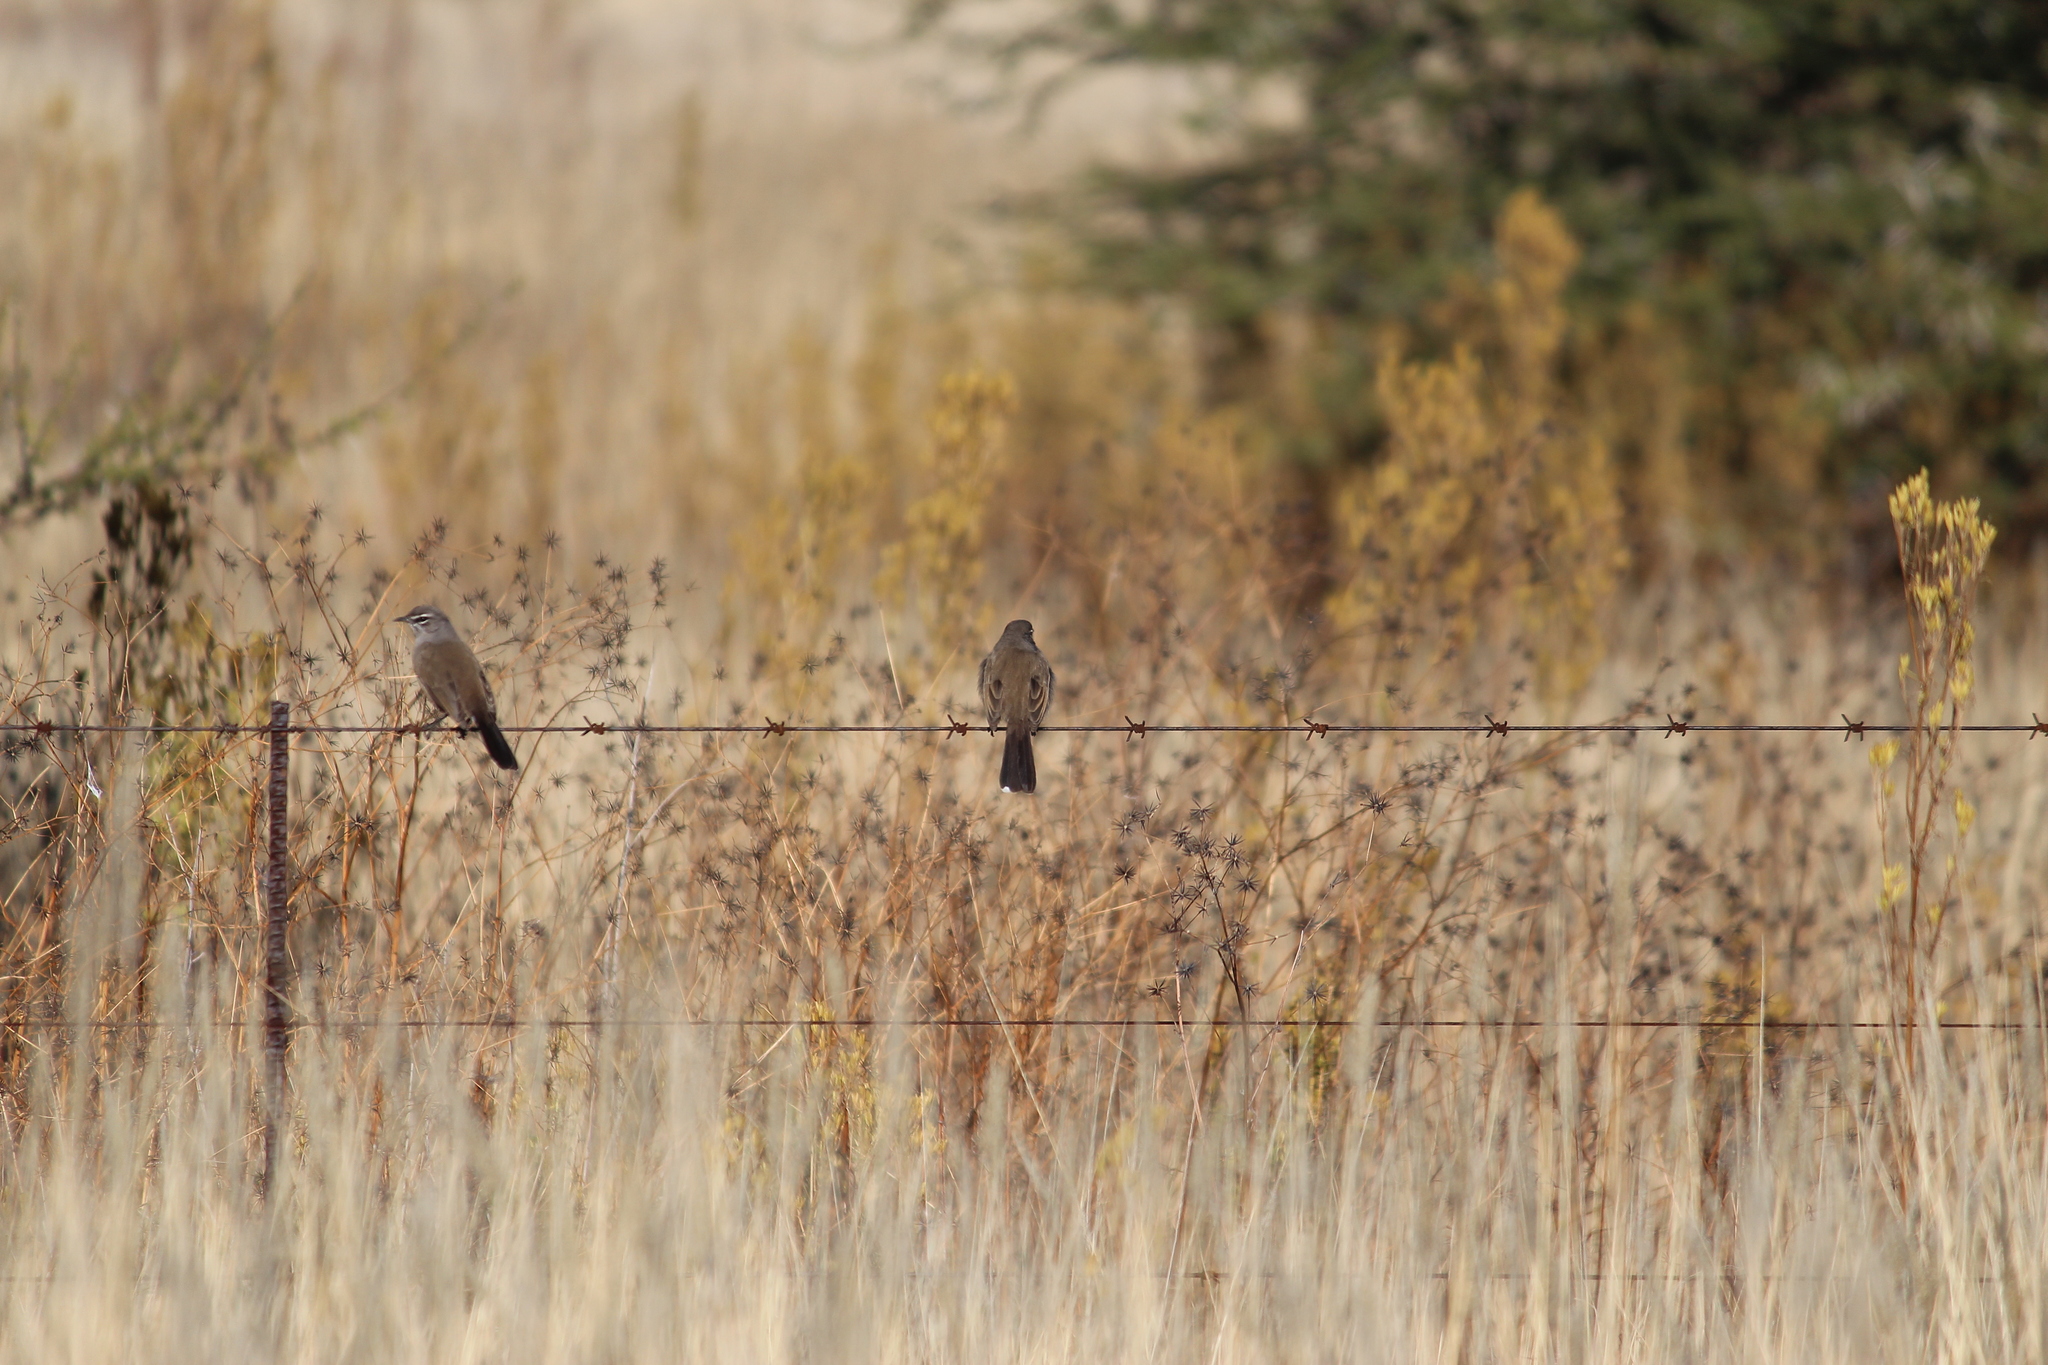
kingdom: Animalia
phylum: Chordata
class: Aves
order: Passeriformes
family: Muscicapidae
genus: Erythropygia
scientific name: Erythropygia coryphoeus
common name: Karoo scrub robin
